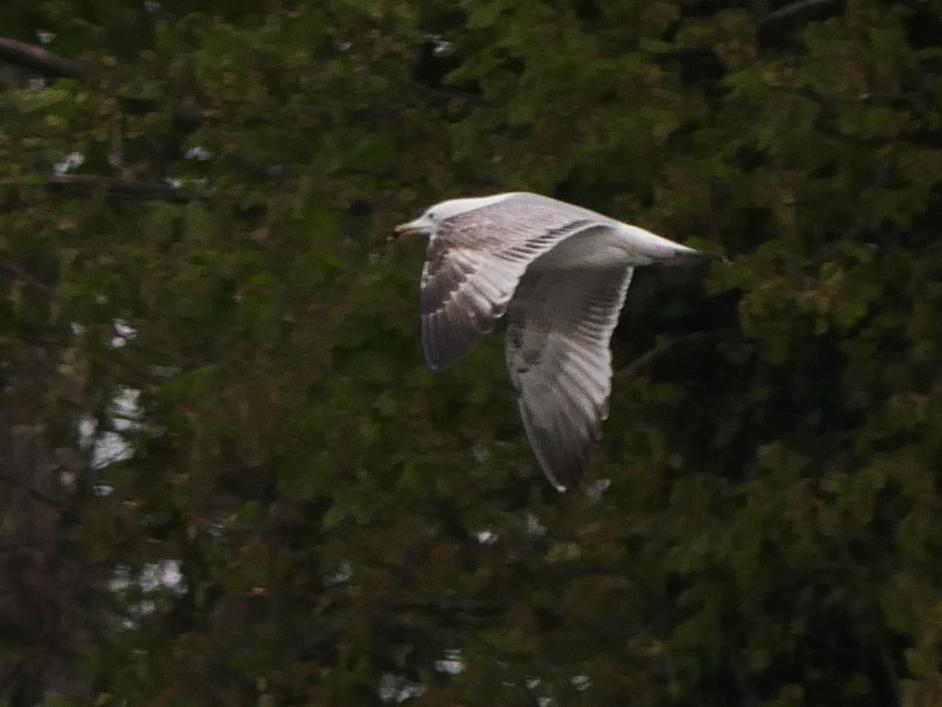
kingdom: Animalia
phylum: Chordata
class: Aves
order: Charadriiformes
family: Laridae
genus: Larus
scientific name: Larus cachinnans
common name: Caspian gull
